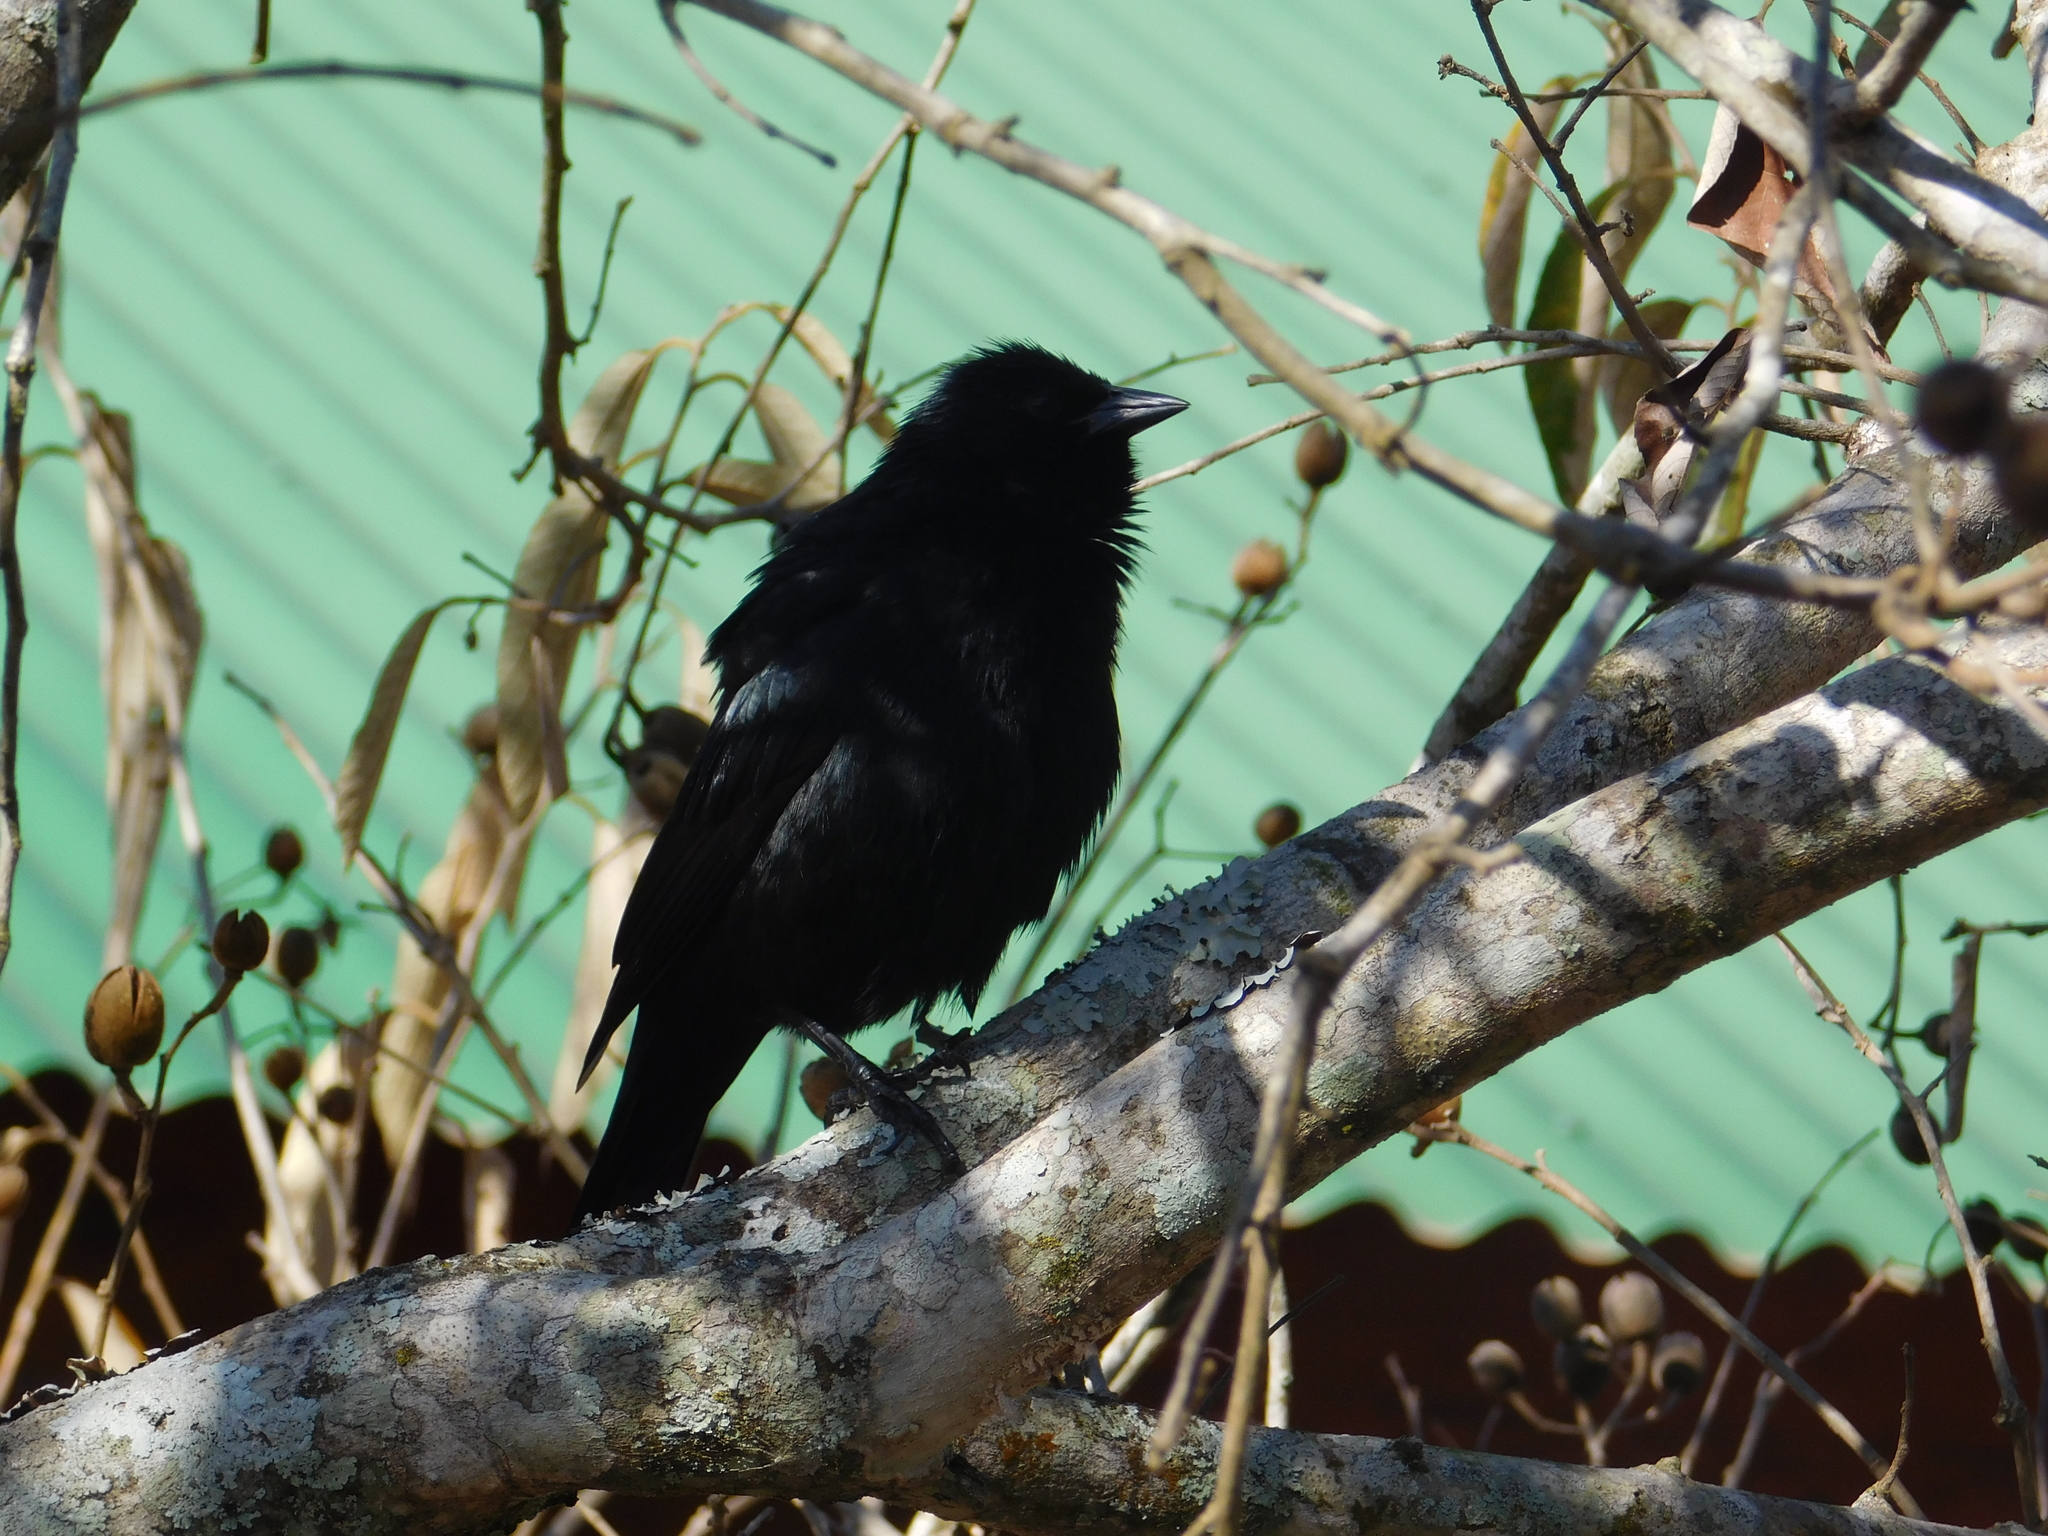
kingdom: Animalia
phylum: Chordata
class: Aves
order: Passeriformes
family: Icteridae
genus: Gnorimopsar
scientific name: Gnorimopsar chopi
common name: Chopi blackbird
